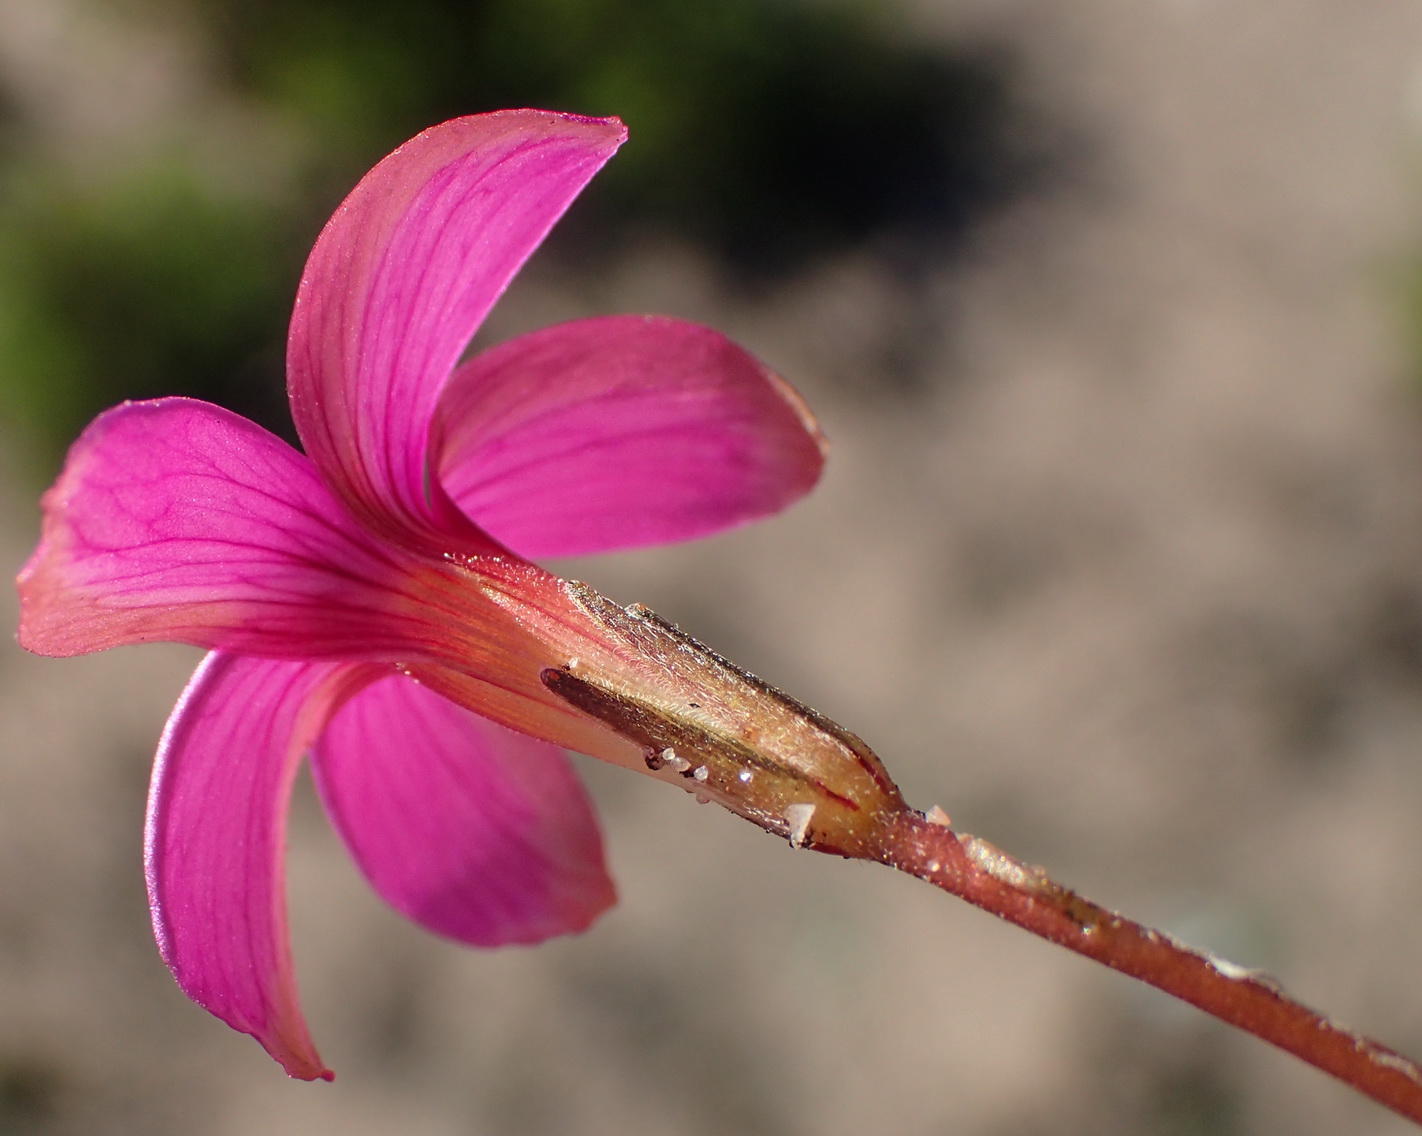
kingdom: Plantae
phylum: Tracheophyta
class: Magnoliopsida
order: Oxalidales
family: Oxalidaceae
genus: Oxalis
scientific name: Oxalis polyphylla
